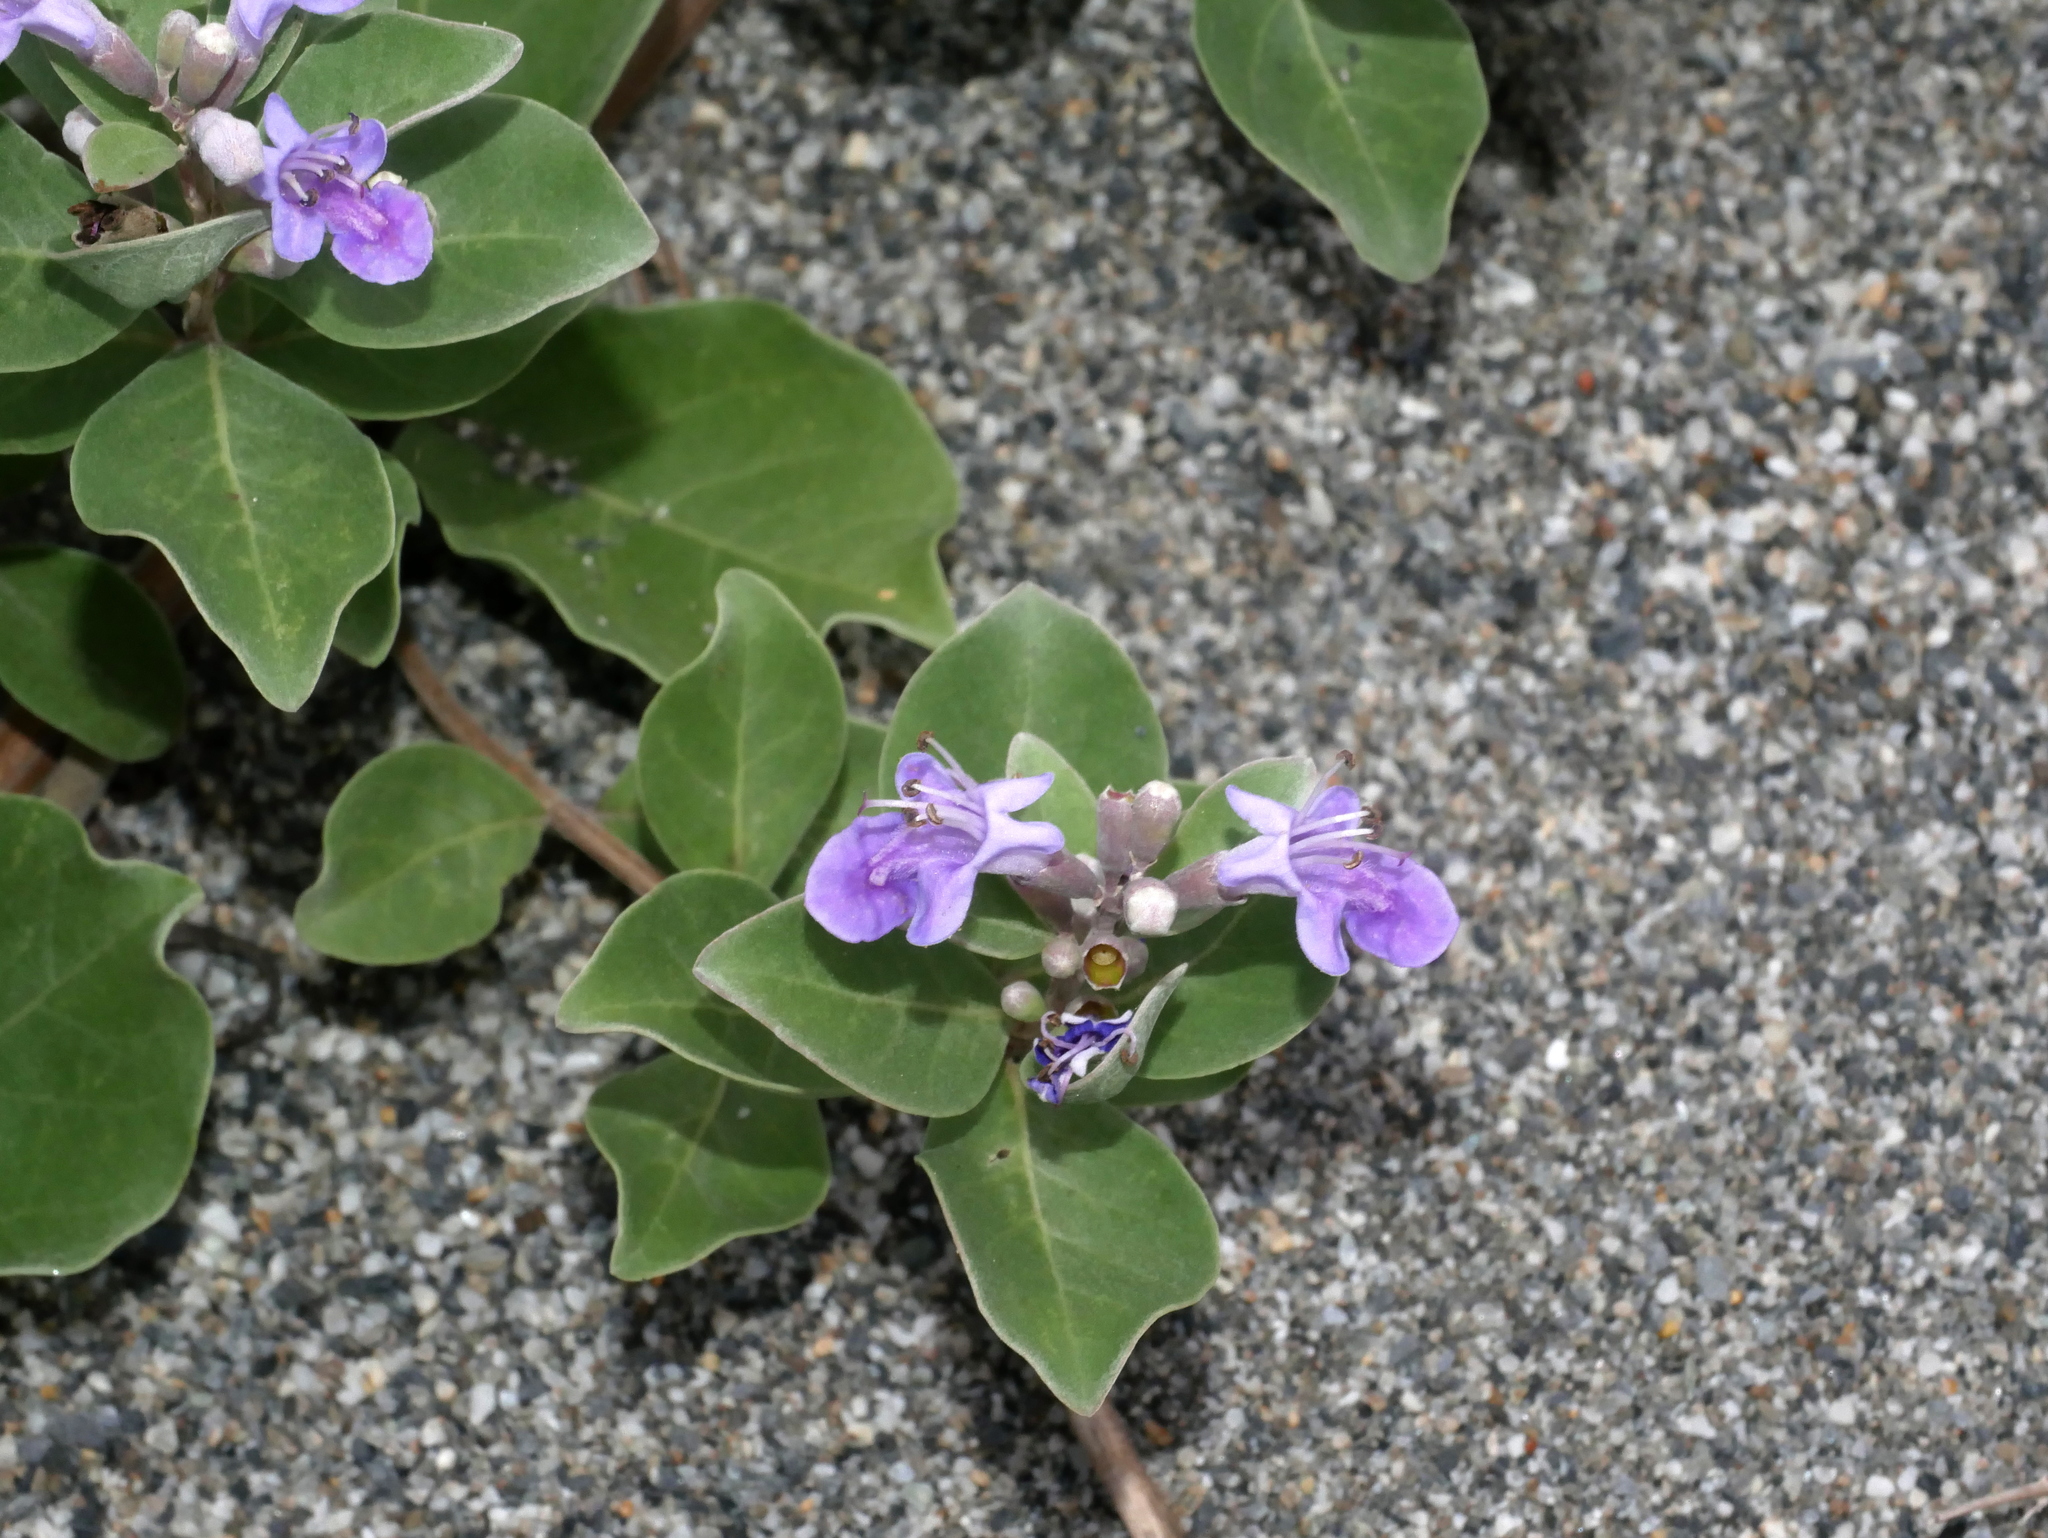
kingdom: Plantae
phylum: Tracheophyta
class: Magnoliopsida
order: Lamiales
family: Lamiaceae
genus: Vitex
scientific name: Vitex rotundifolia
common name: Beach vitex
